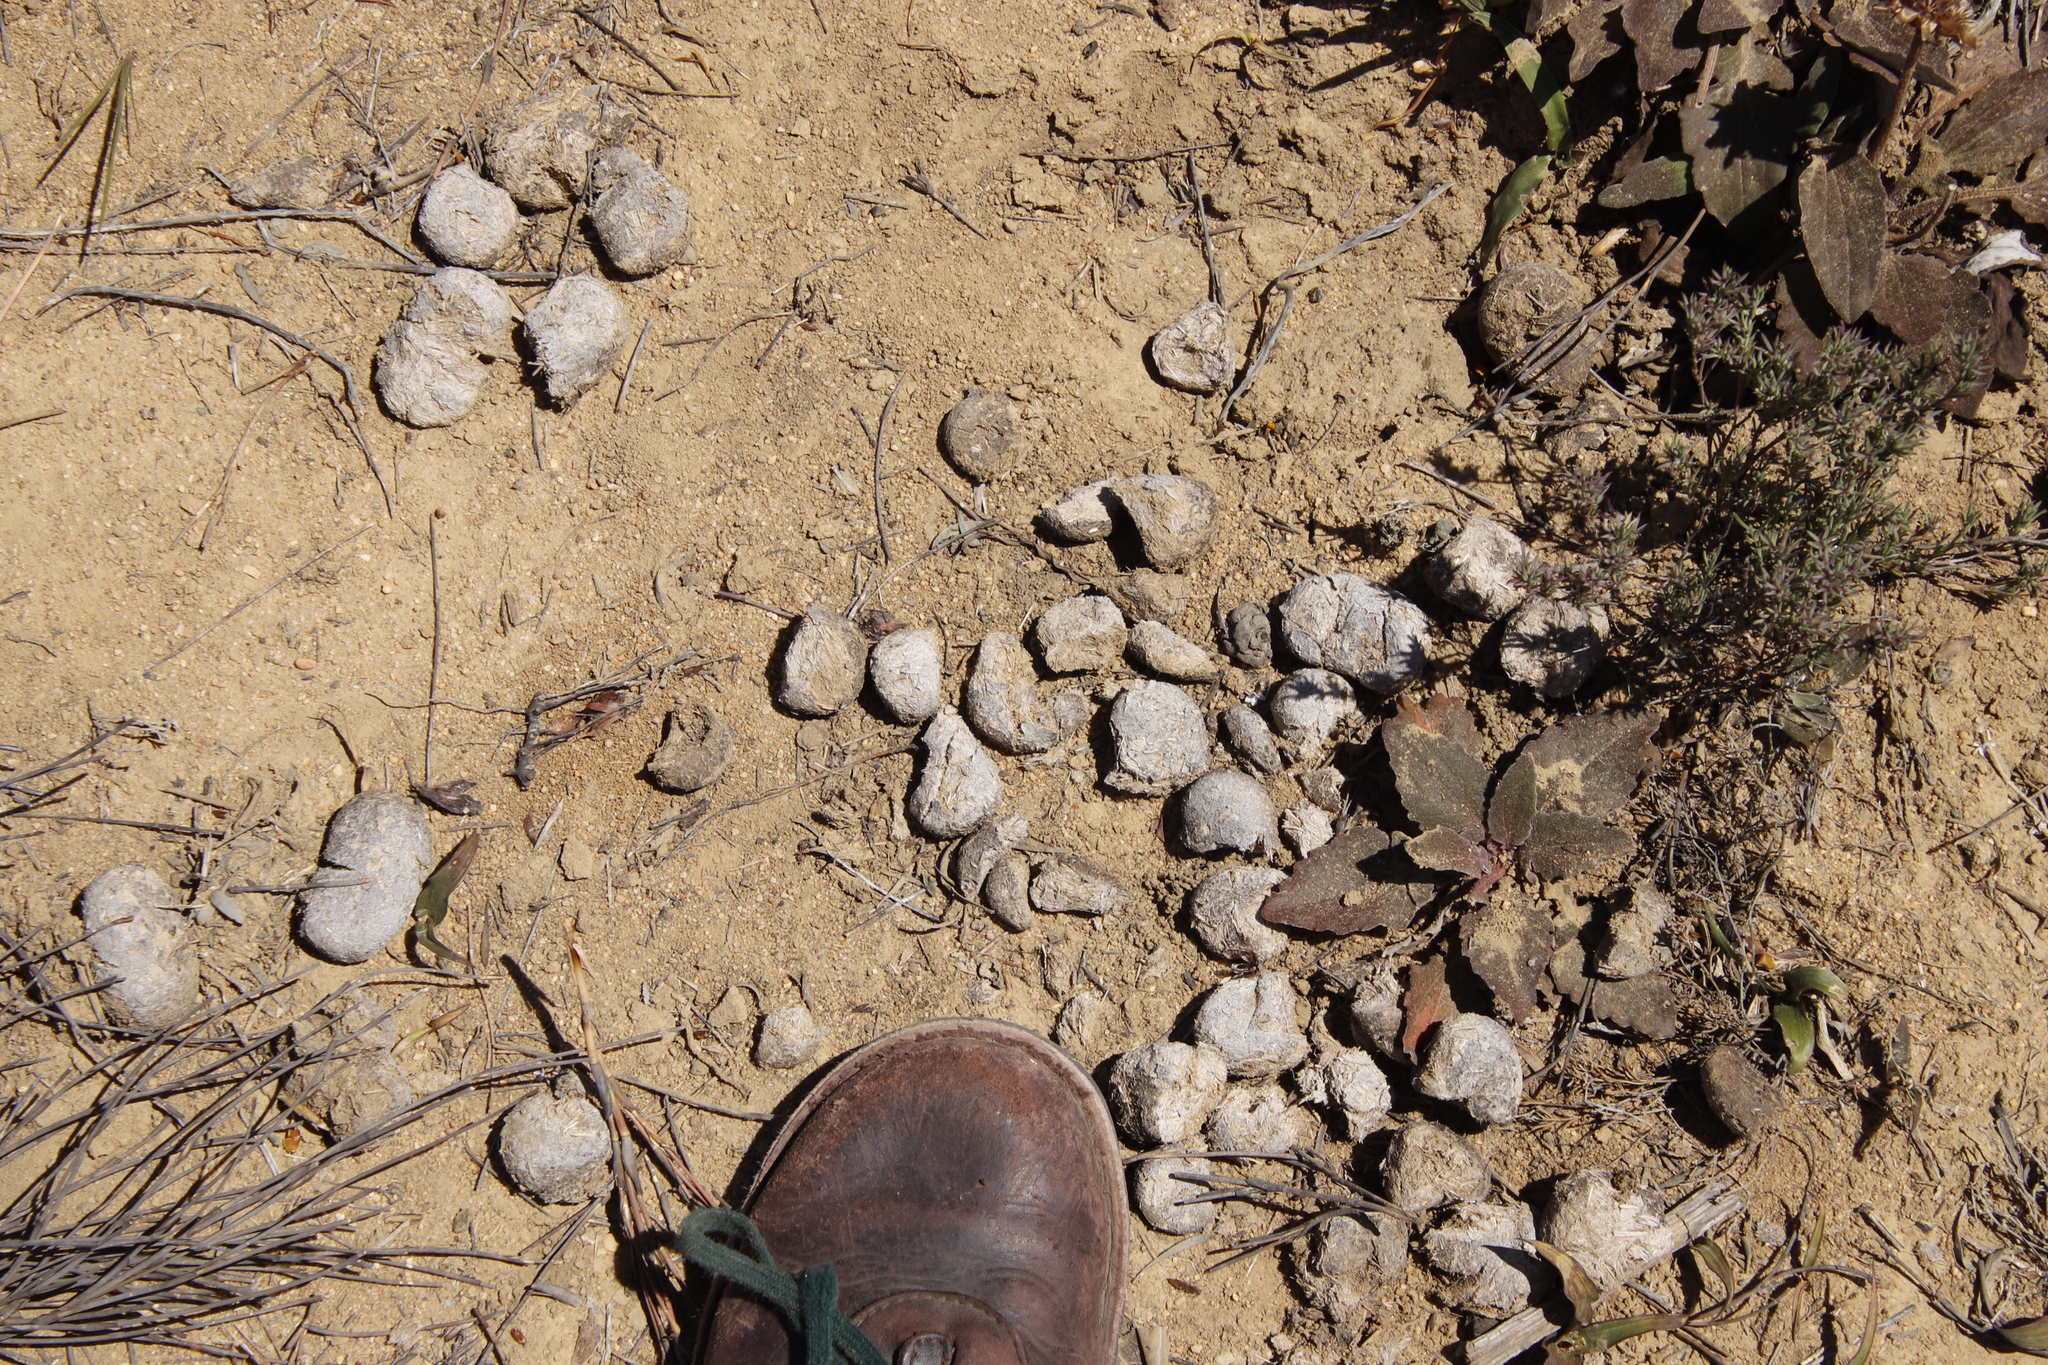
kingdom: Animalia
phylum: Chordata
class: Mammalia
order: Perissodactyla
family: Equidae
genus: Equus
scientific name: Equus zebra
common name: Mountain zebra
